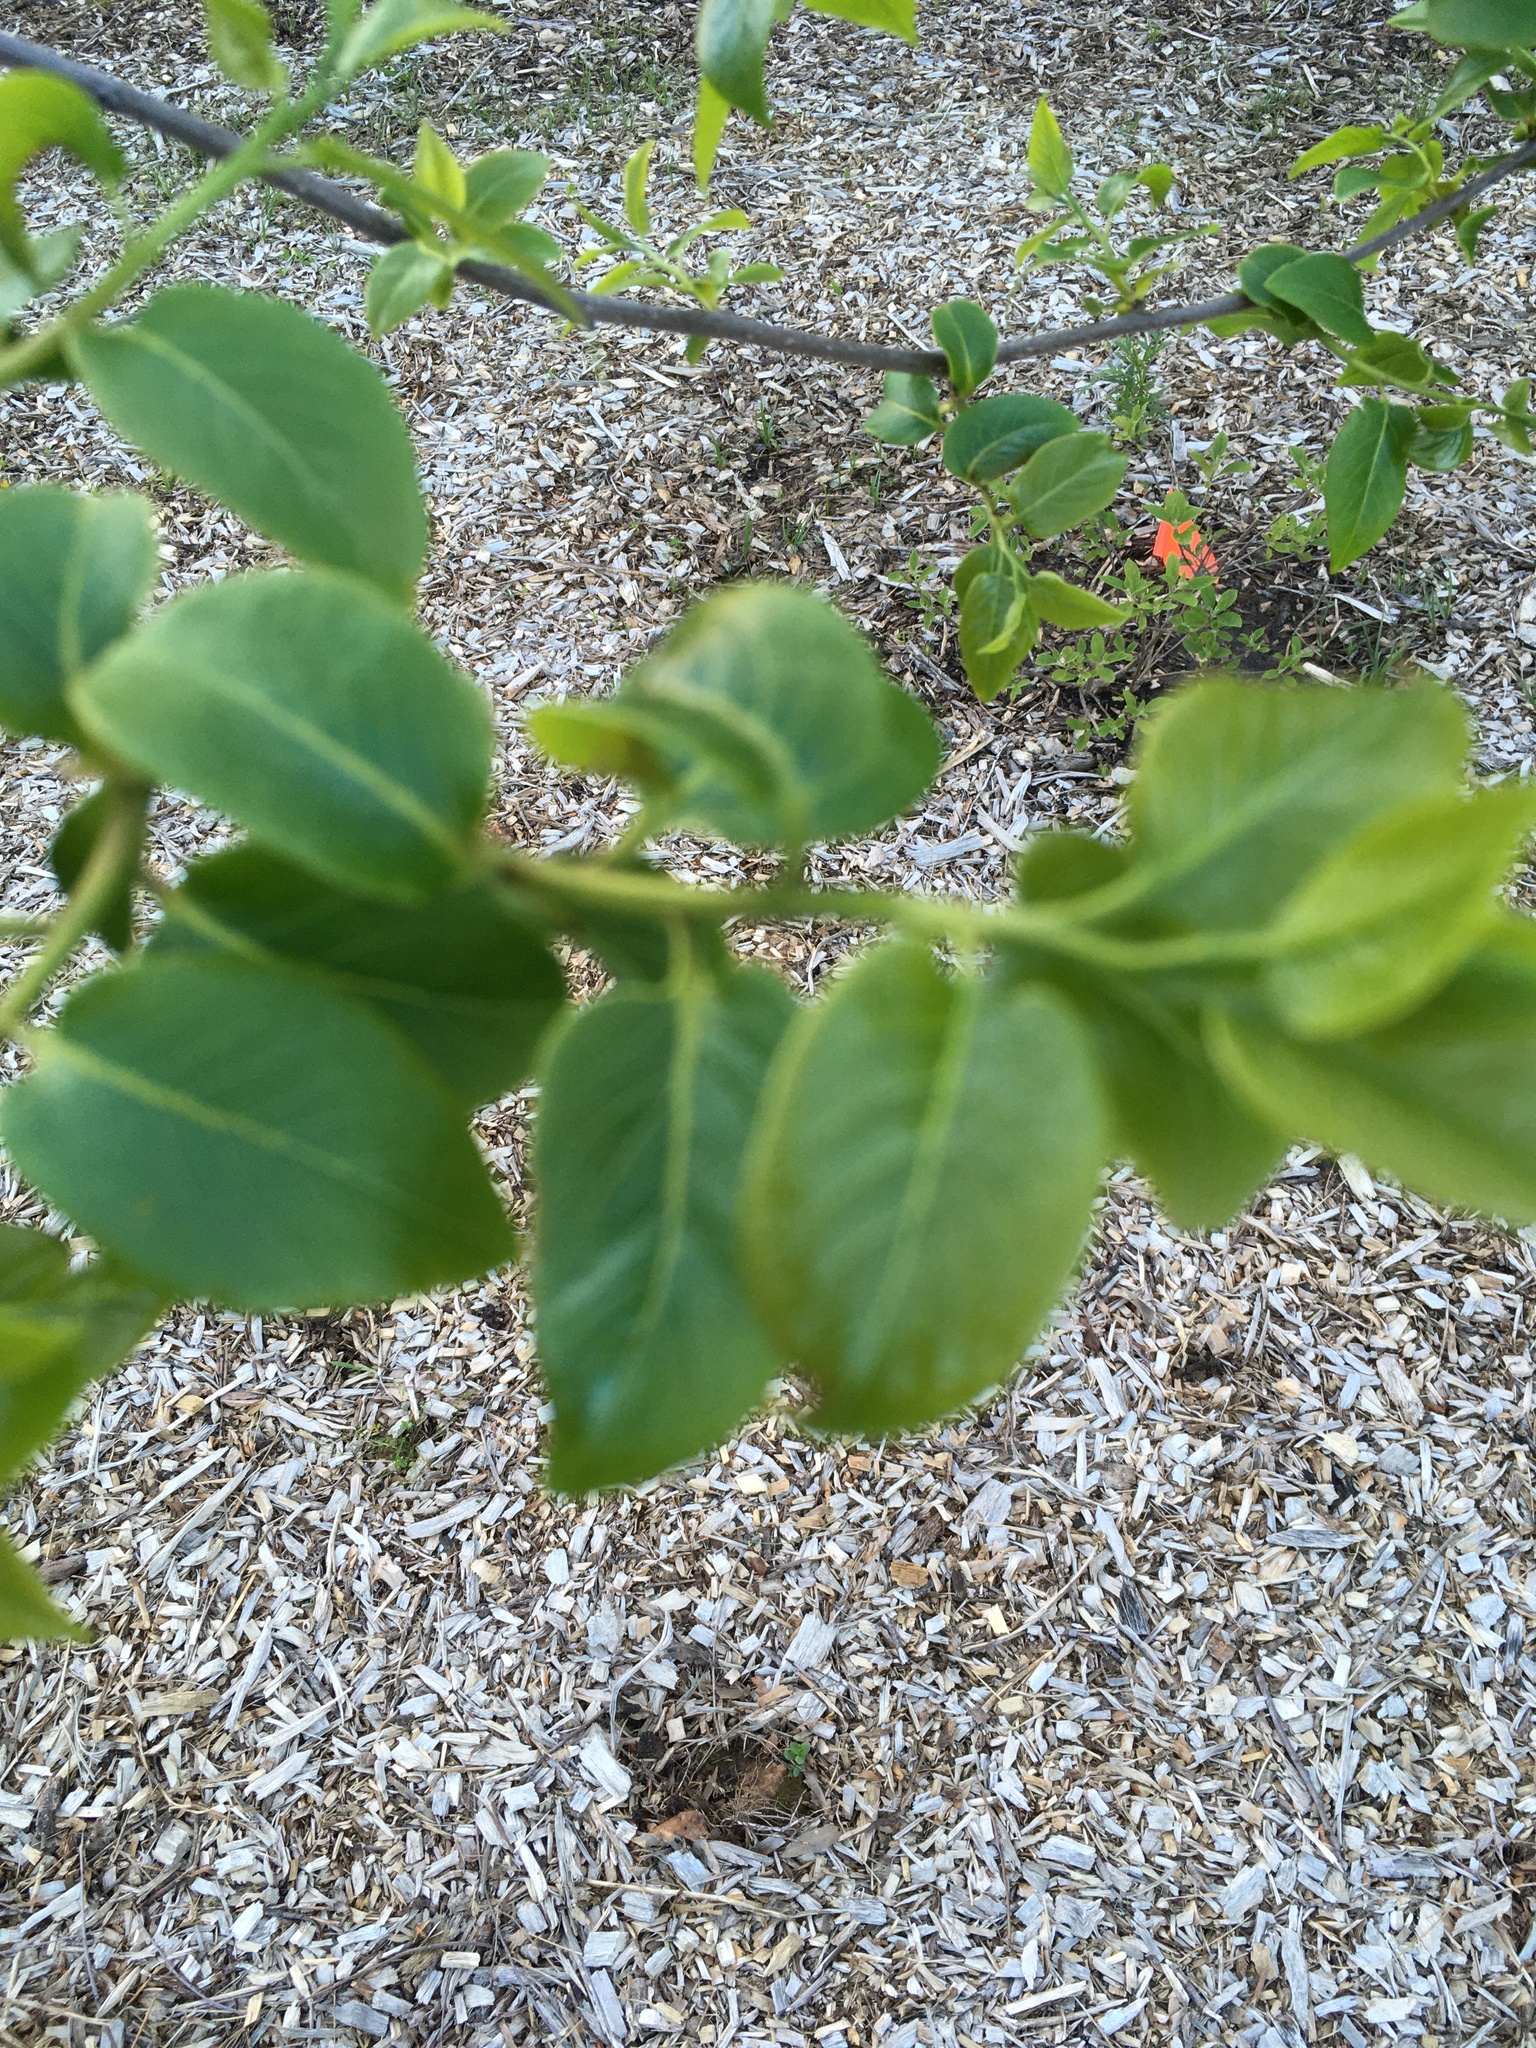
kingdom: Plantae
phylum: Tracheophyta
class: Magnoliopsida
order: Ericales
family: Ebenaceae
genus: Diospyros
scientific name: Diospyros virginiana
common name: Persimmon
